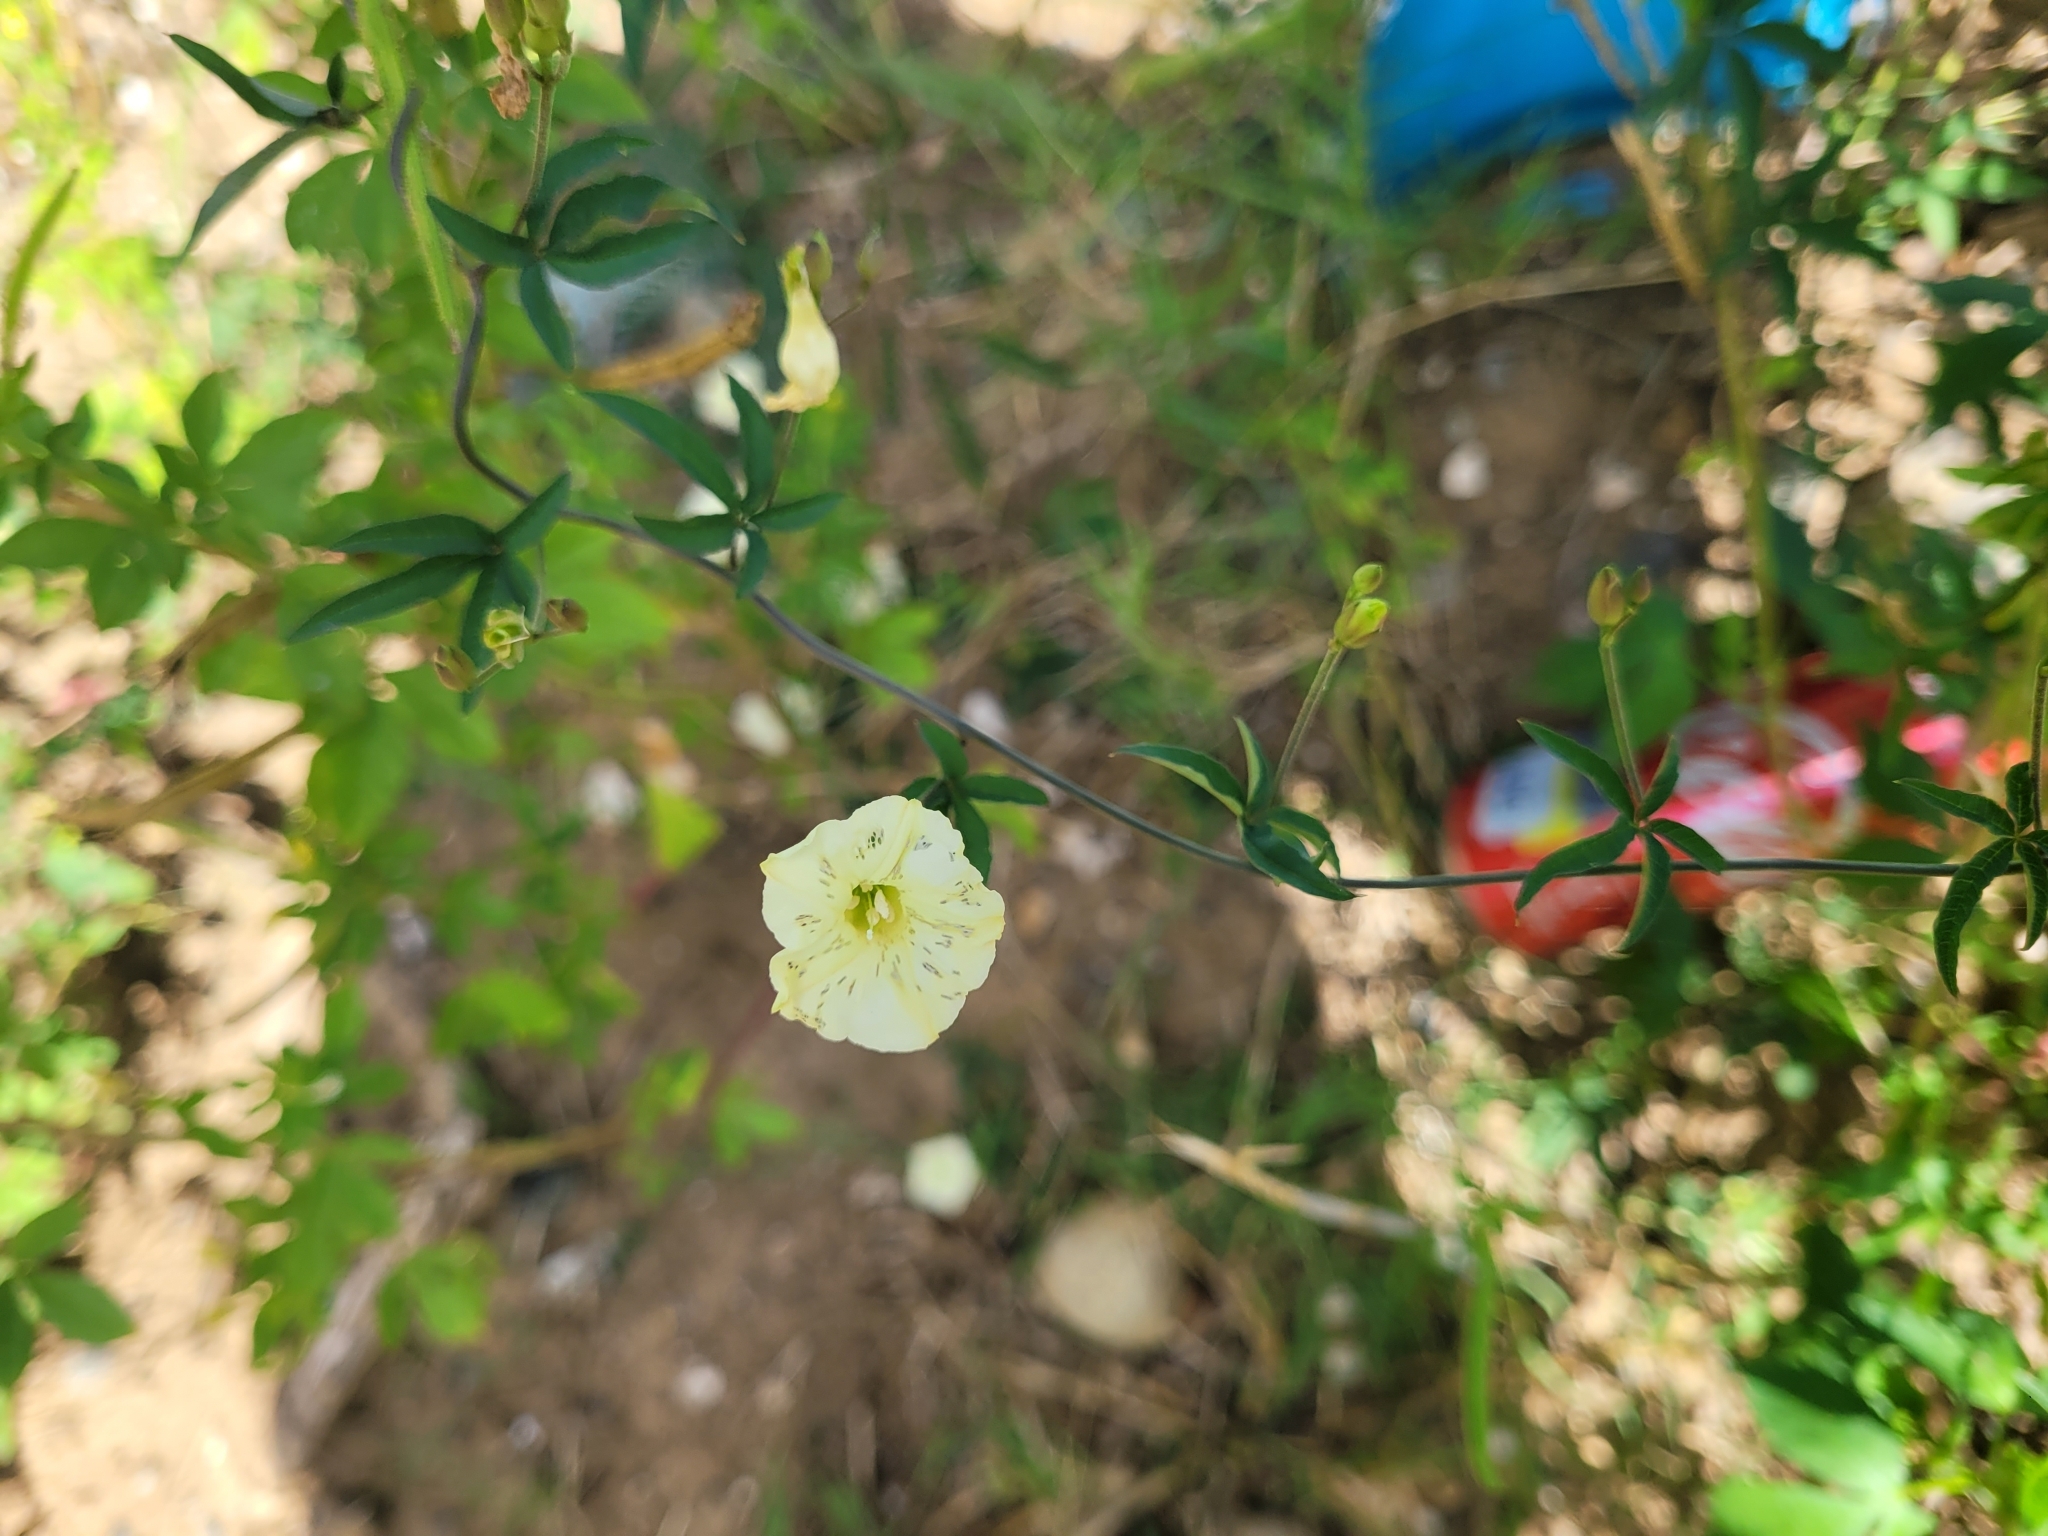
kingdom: Plantae
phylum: Tracheophyta
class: Magnoliopsida
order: Solanales
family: Convolvulaceae
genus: Distimake
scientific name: Distimake quinquefolius
